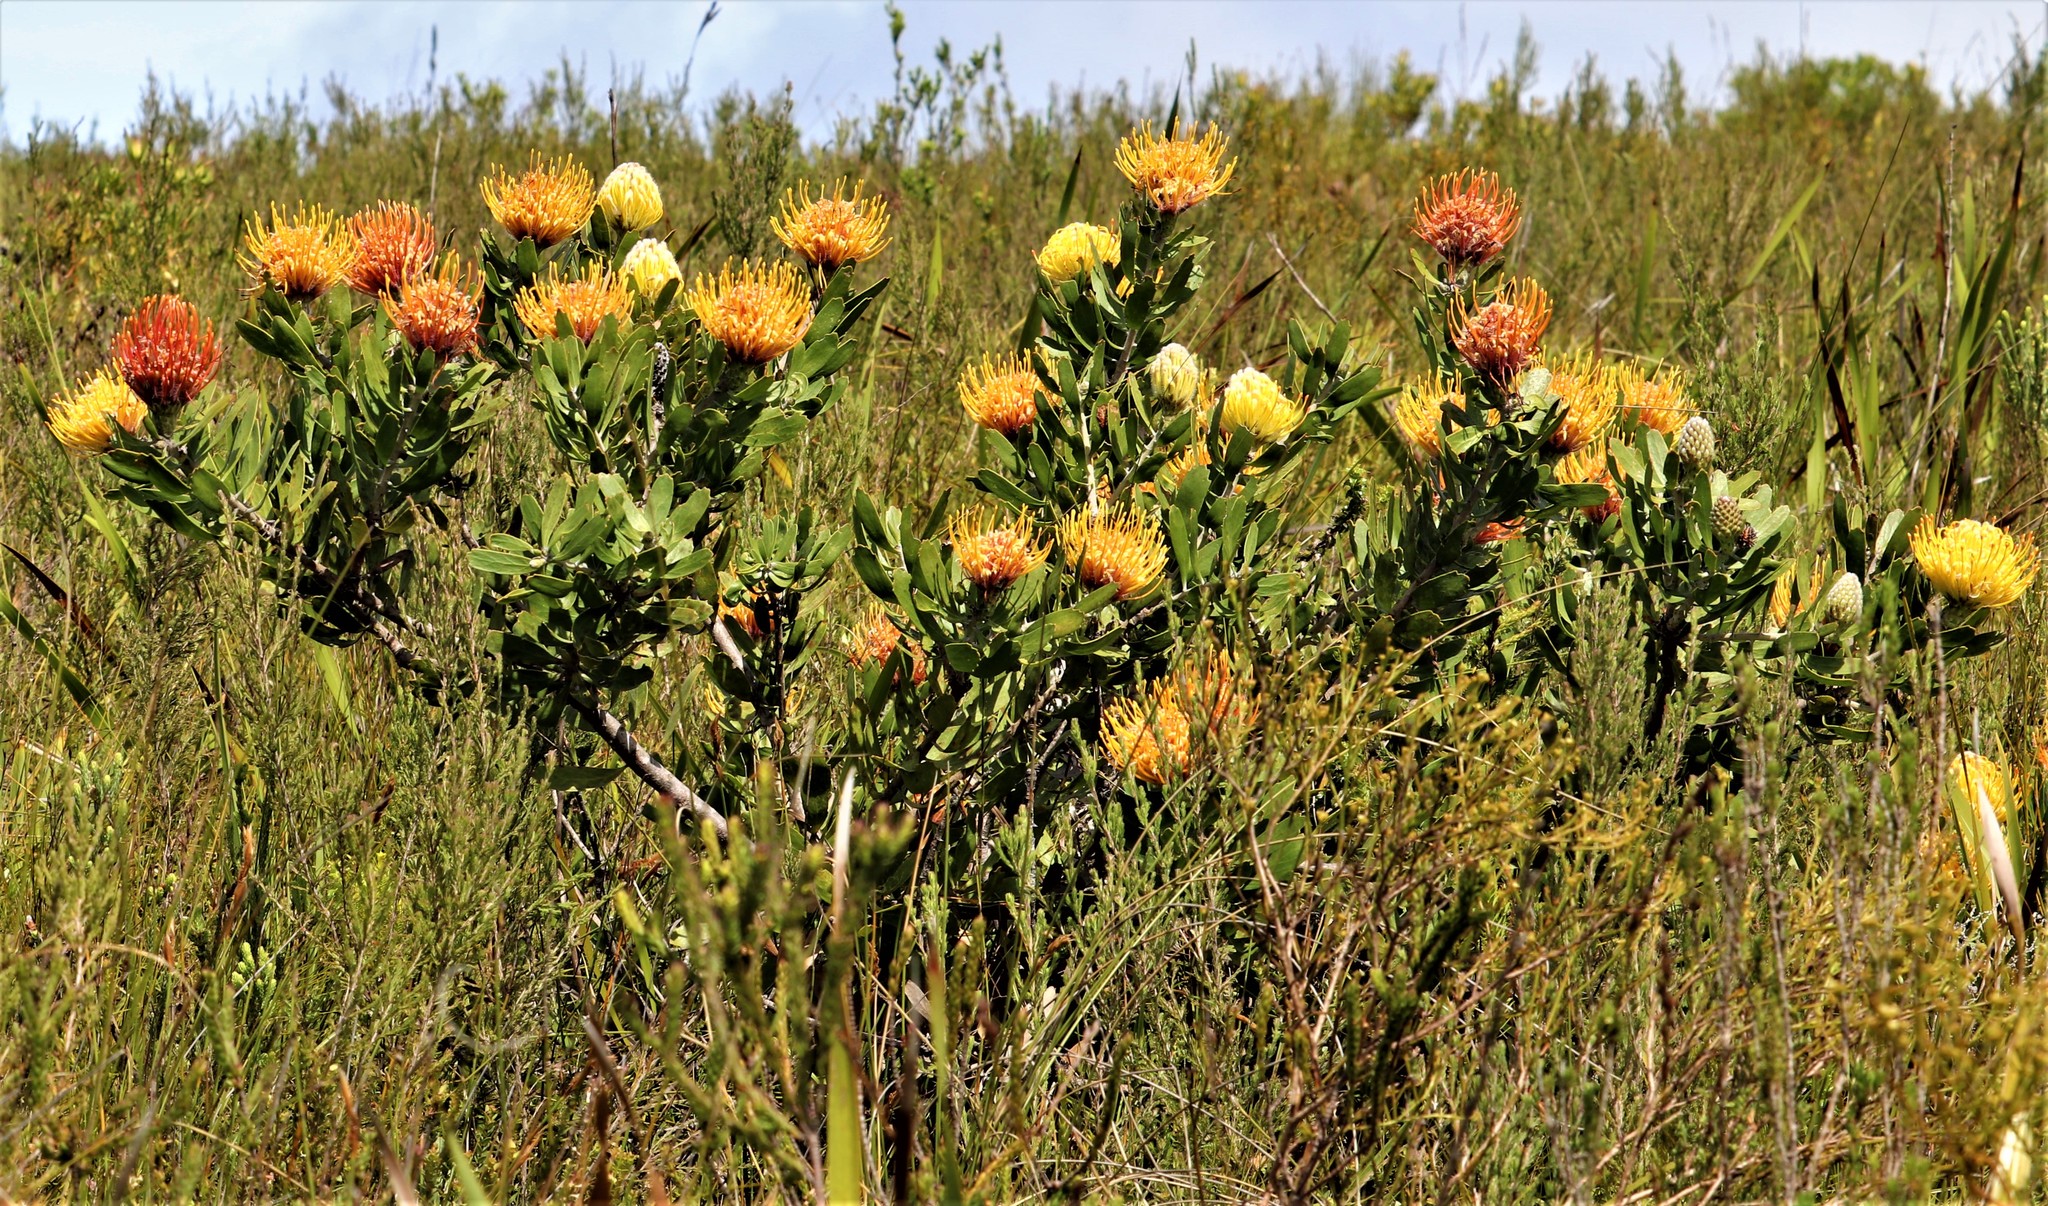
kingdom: Plantae
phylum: Tracheophyta
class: Magnoliopsida
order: Proteales
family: Proteaceae
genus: Leucospermum
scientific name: Leucospermum cuneiforme
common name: Common pincushion
